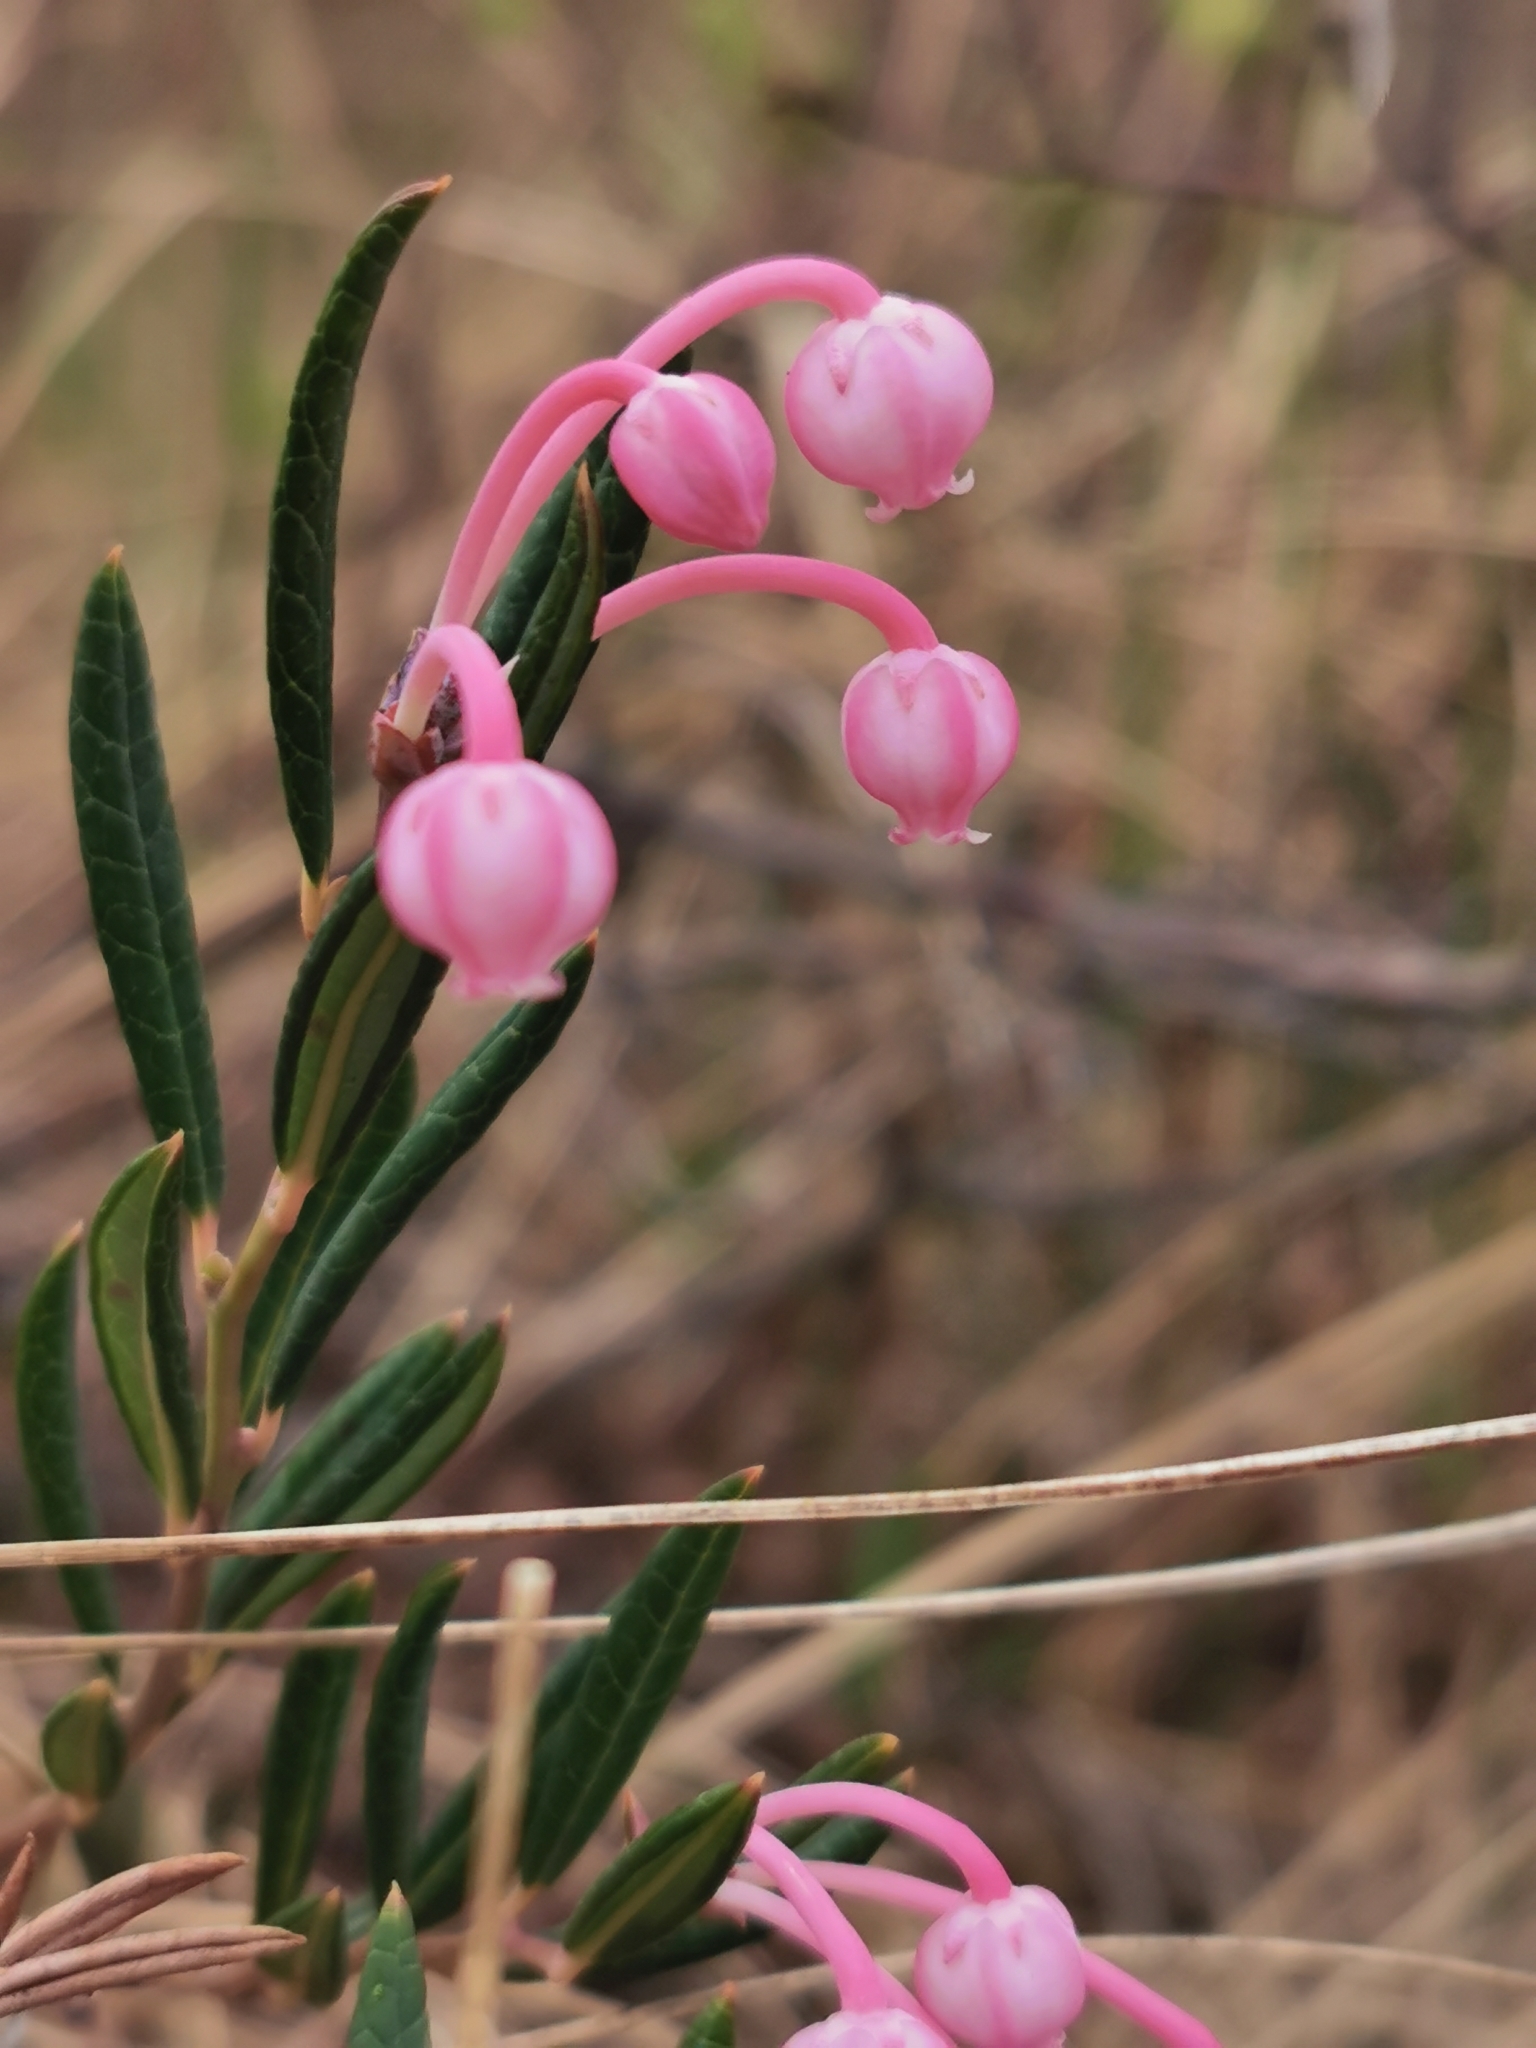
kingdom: Plantae
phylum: Tracheophyta
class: Magnoliopsida
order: Ericales
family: Ericaceae
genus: Andromeda
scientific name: Andromeda polifolia
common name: Bog-rosemary
